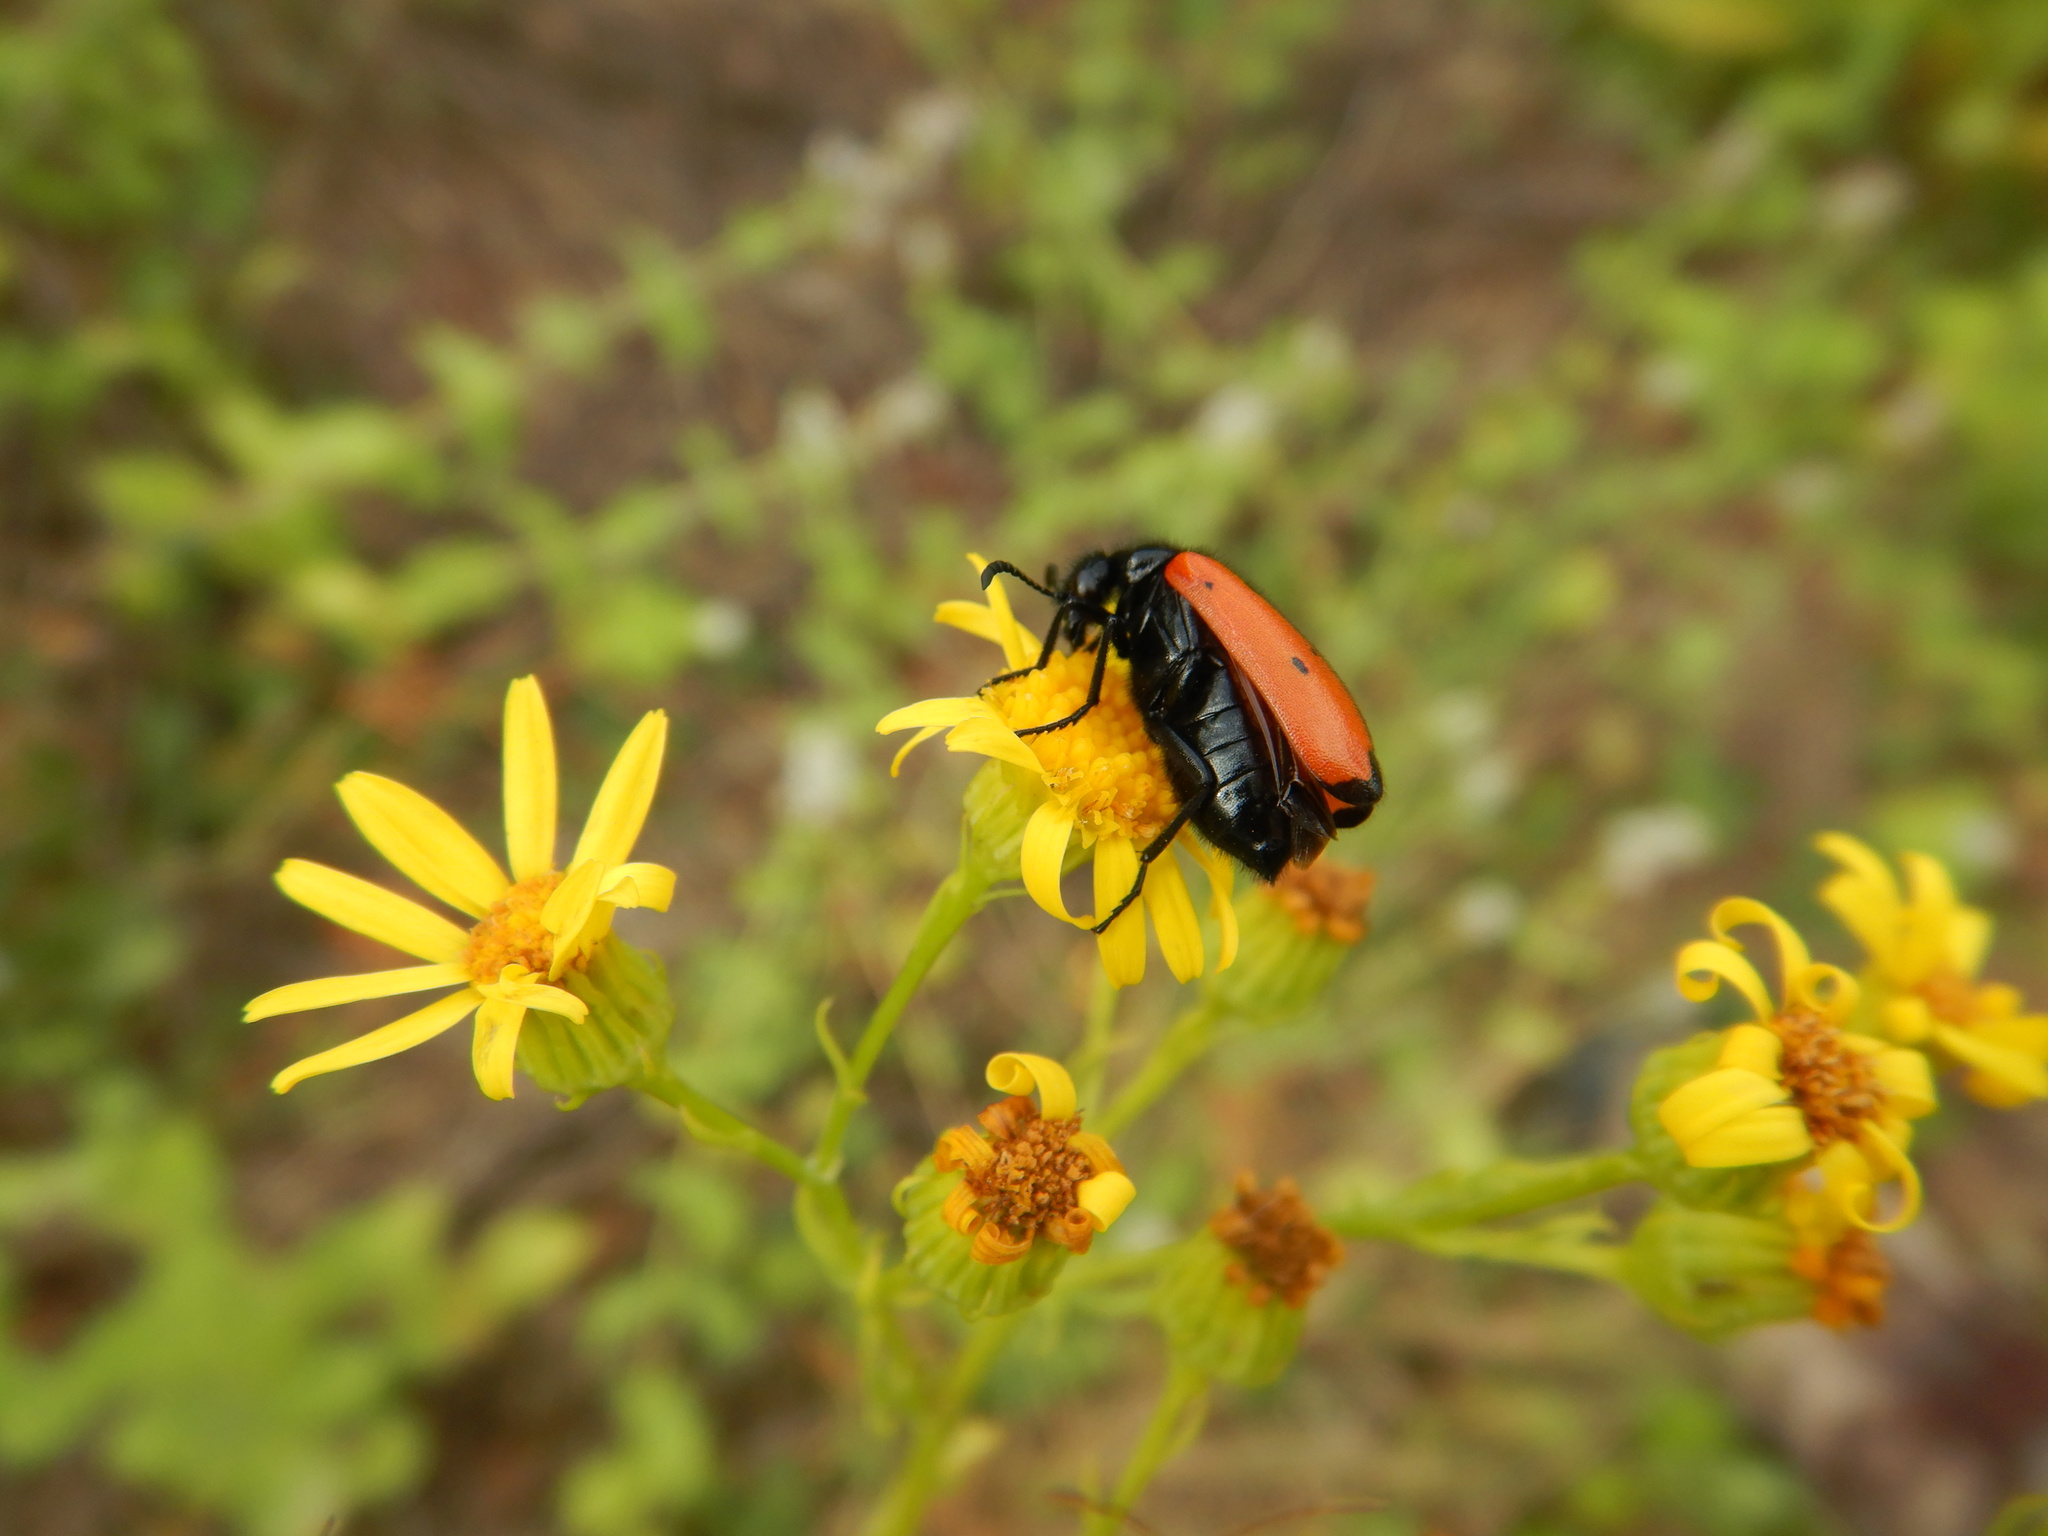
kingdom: Animalia
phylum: Arthropoda
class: Insecta
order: Coleoptera
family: Meloidae
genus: Mylabris
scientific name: Mylabris quadripunctata
